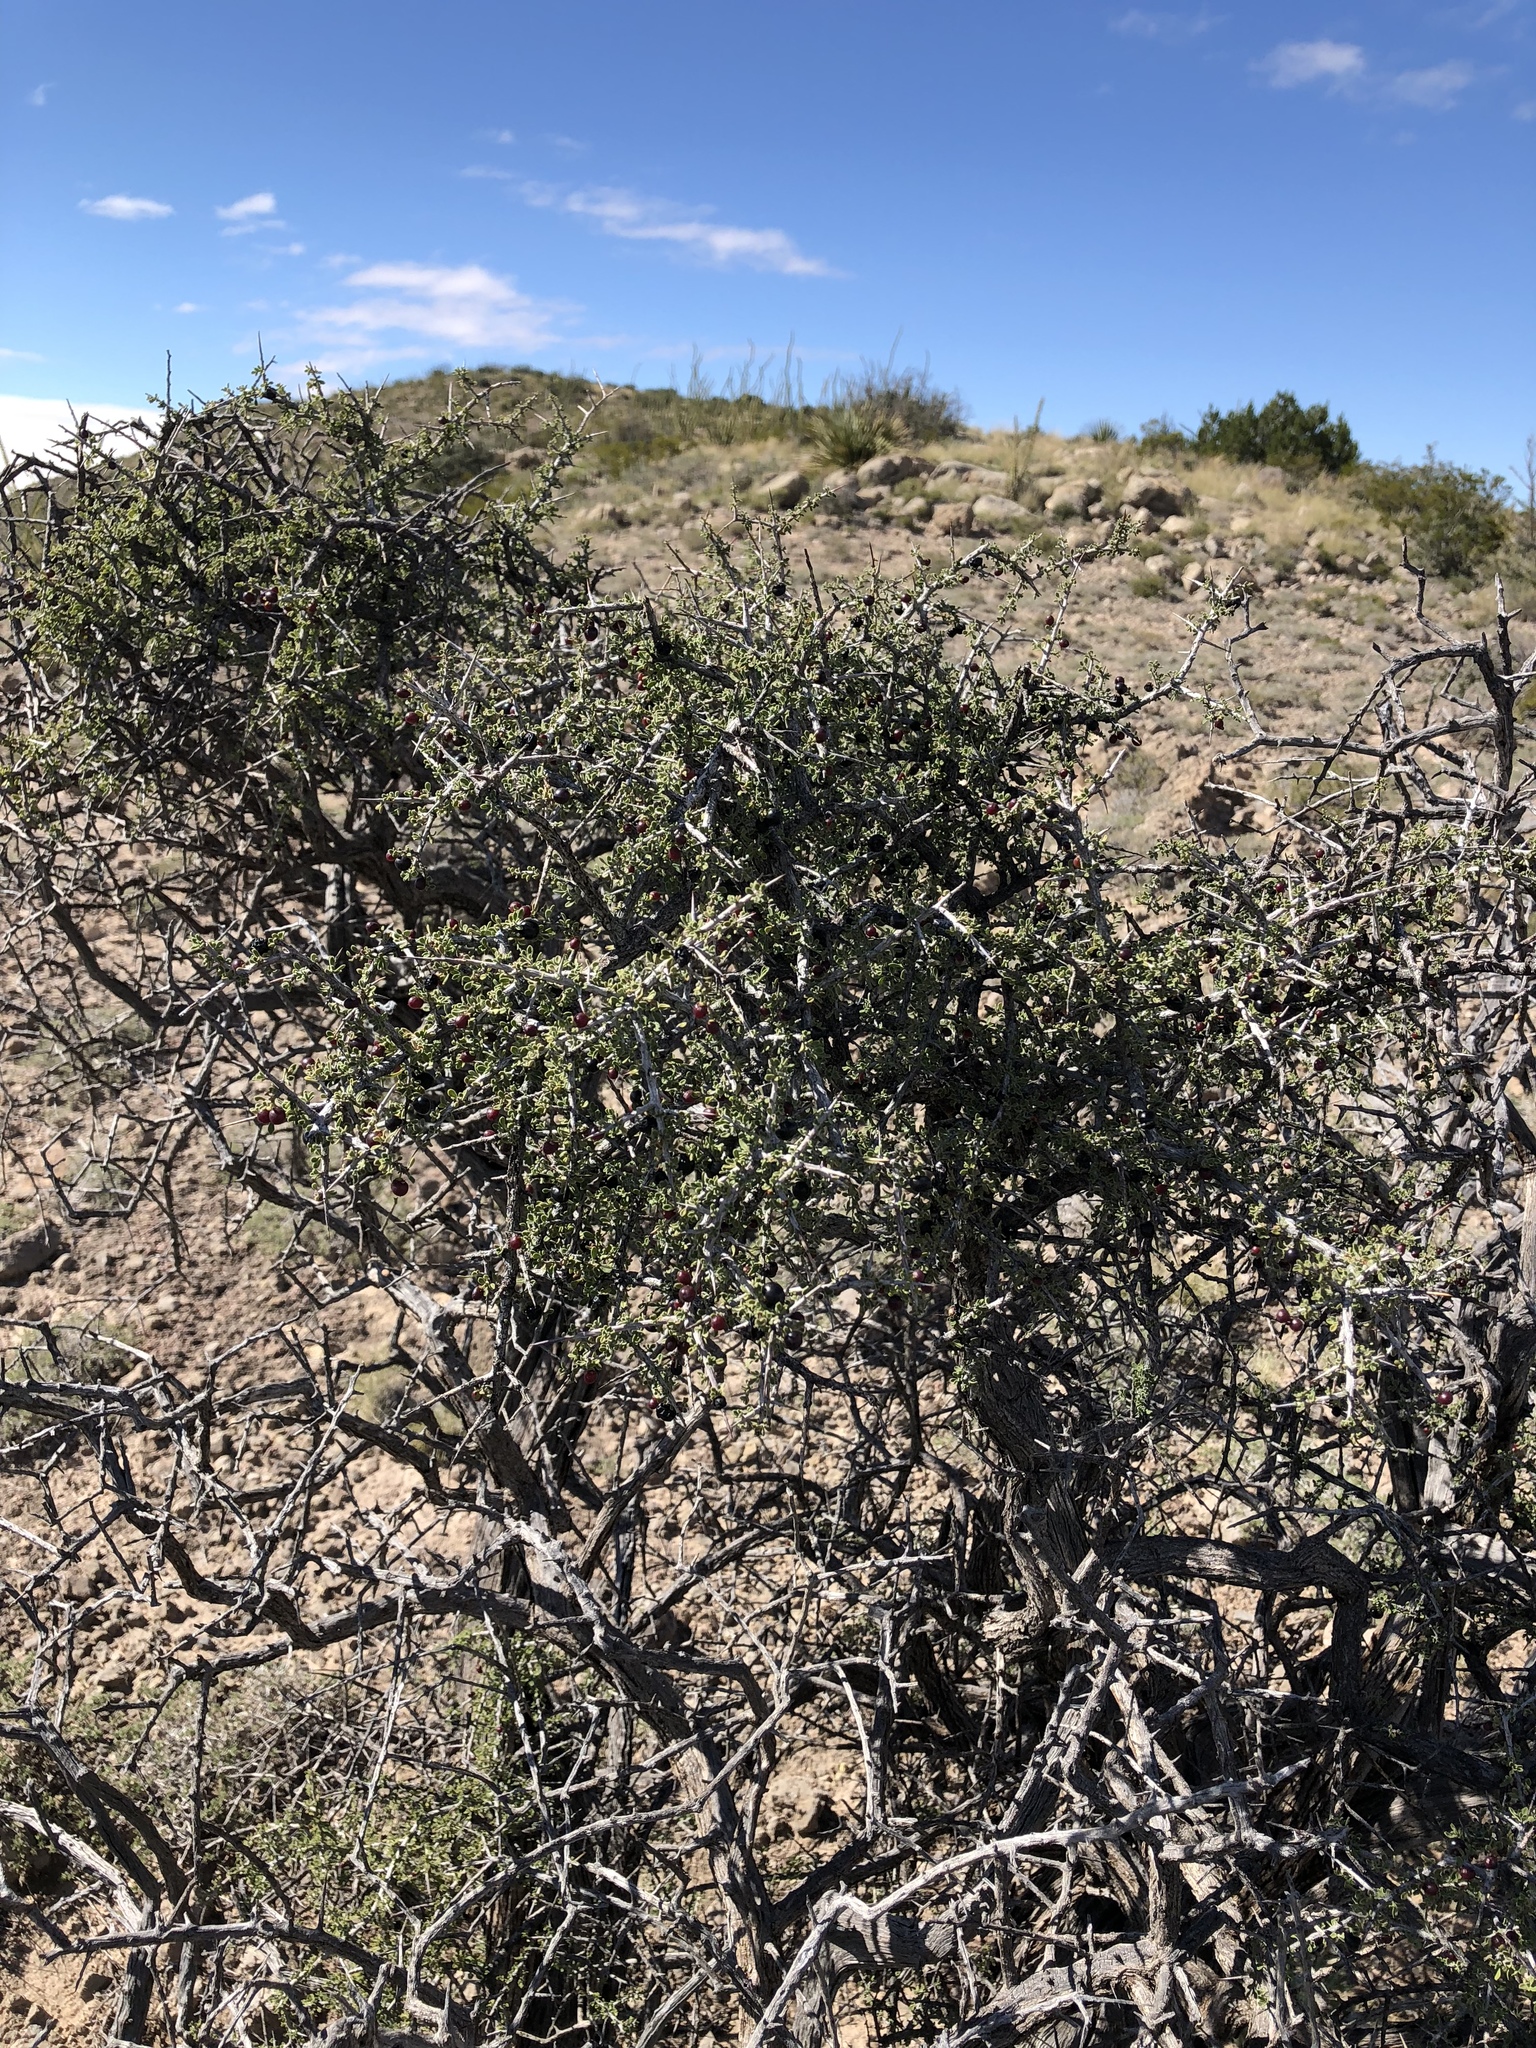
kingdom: Plantae
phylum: Tracheophyta
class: Magnoliopsida
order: Rosales
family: Rhamnaceae
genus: Condalia
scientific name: Condalia warnockii
